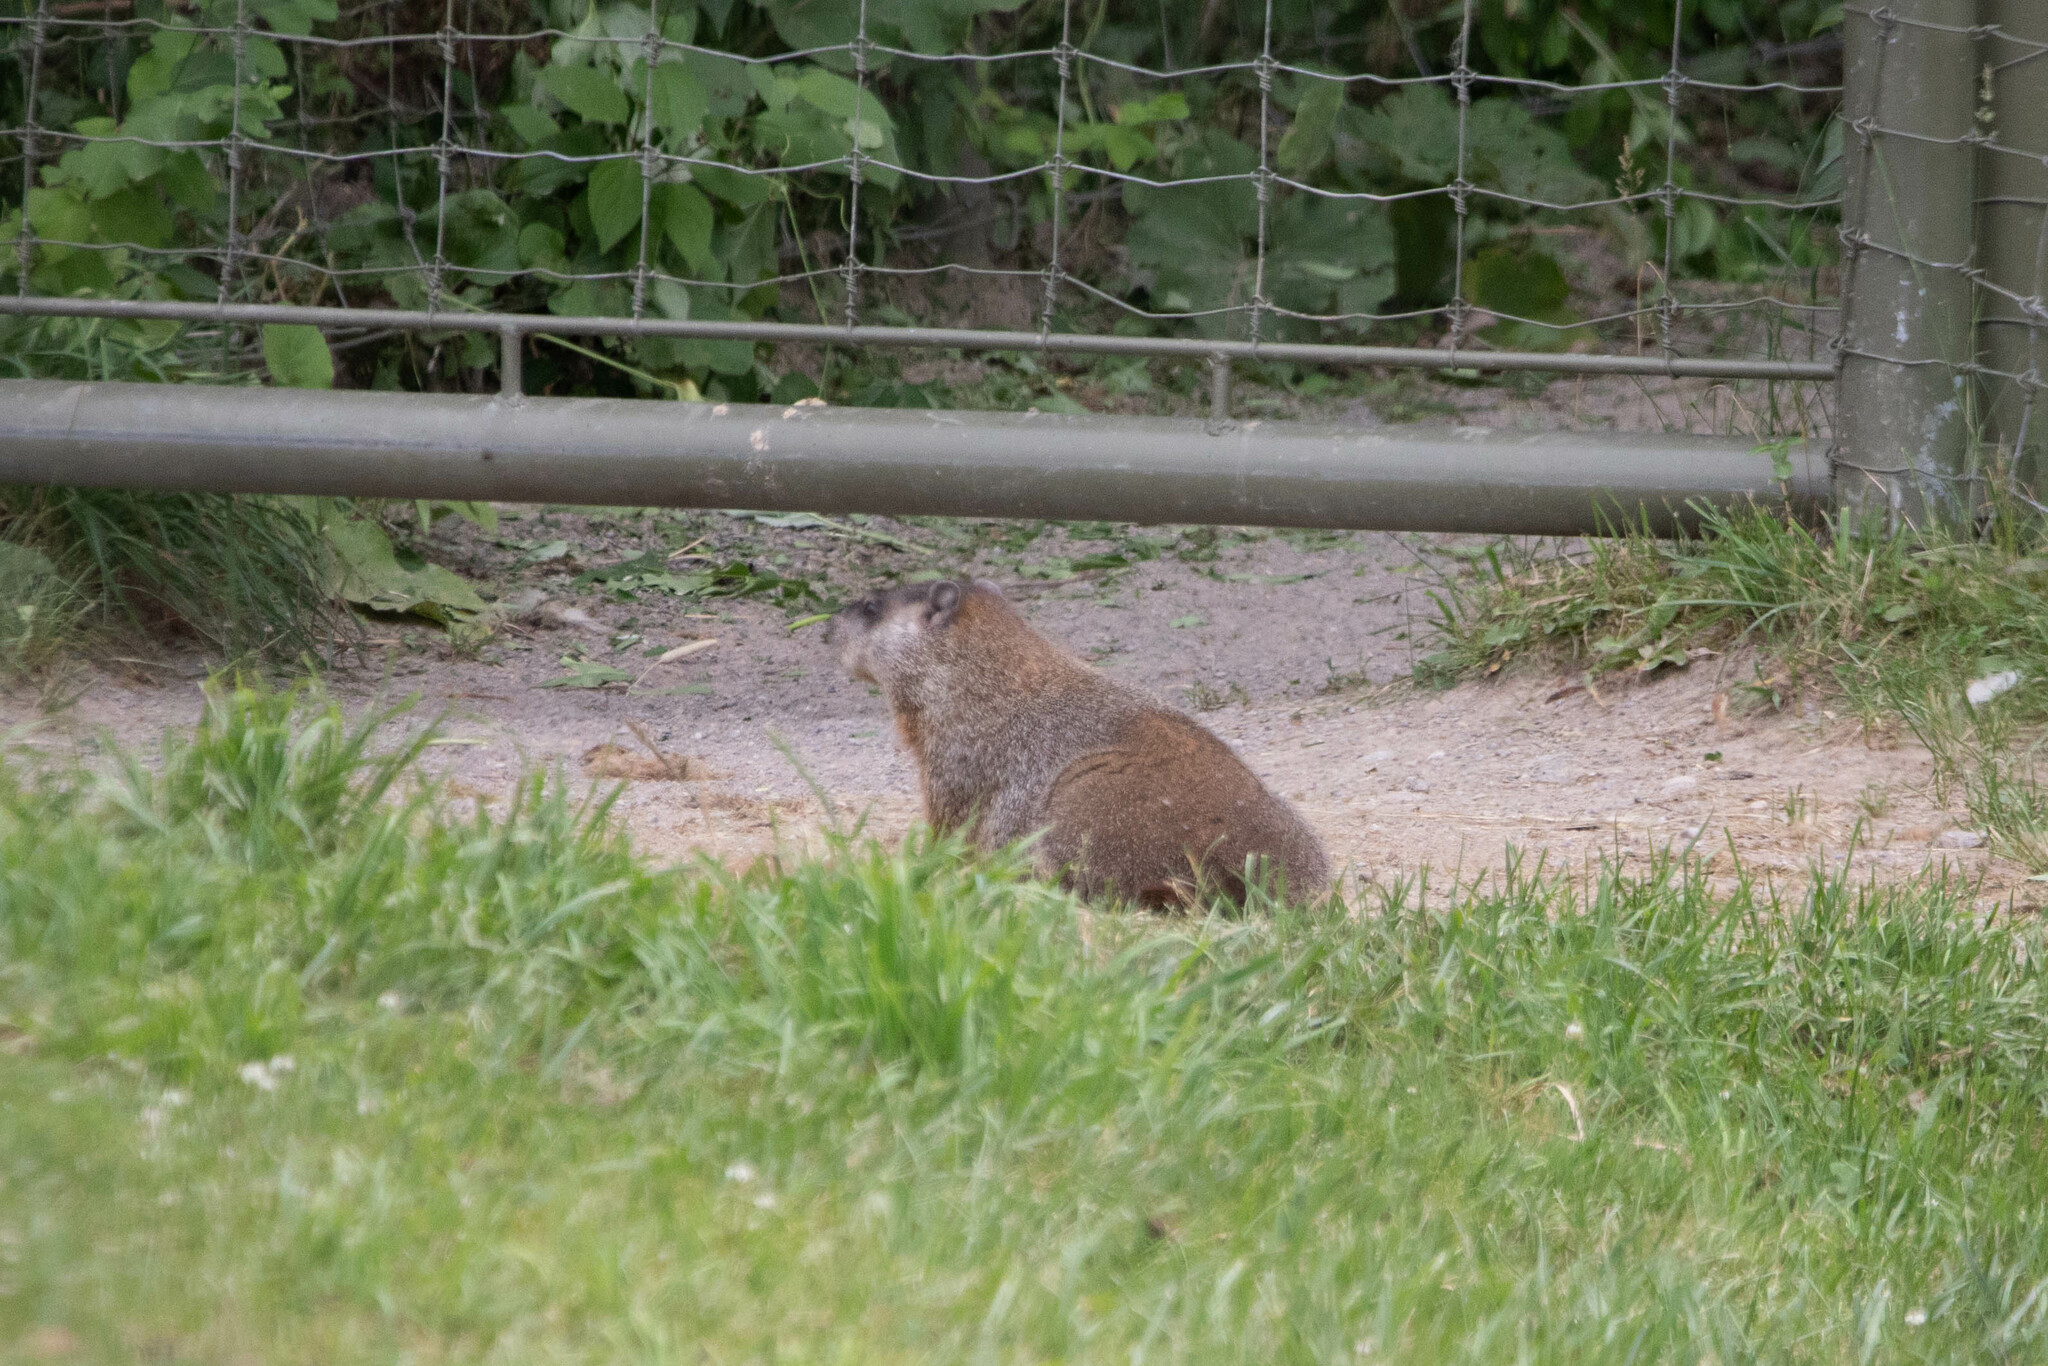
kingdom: Animalia
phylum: Chordata
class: Mammalia
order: Rodentia
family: Sciuridae
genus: Marmota
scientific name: Marmota monax
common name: Groundhog
